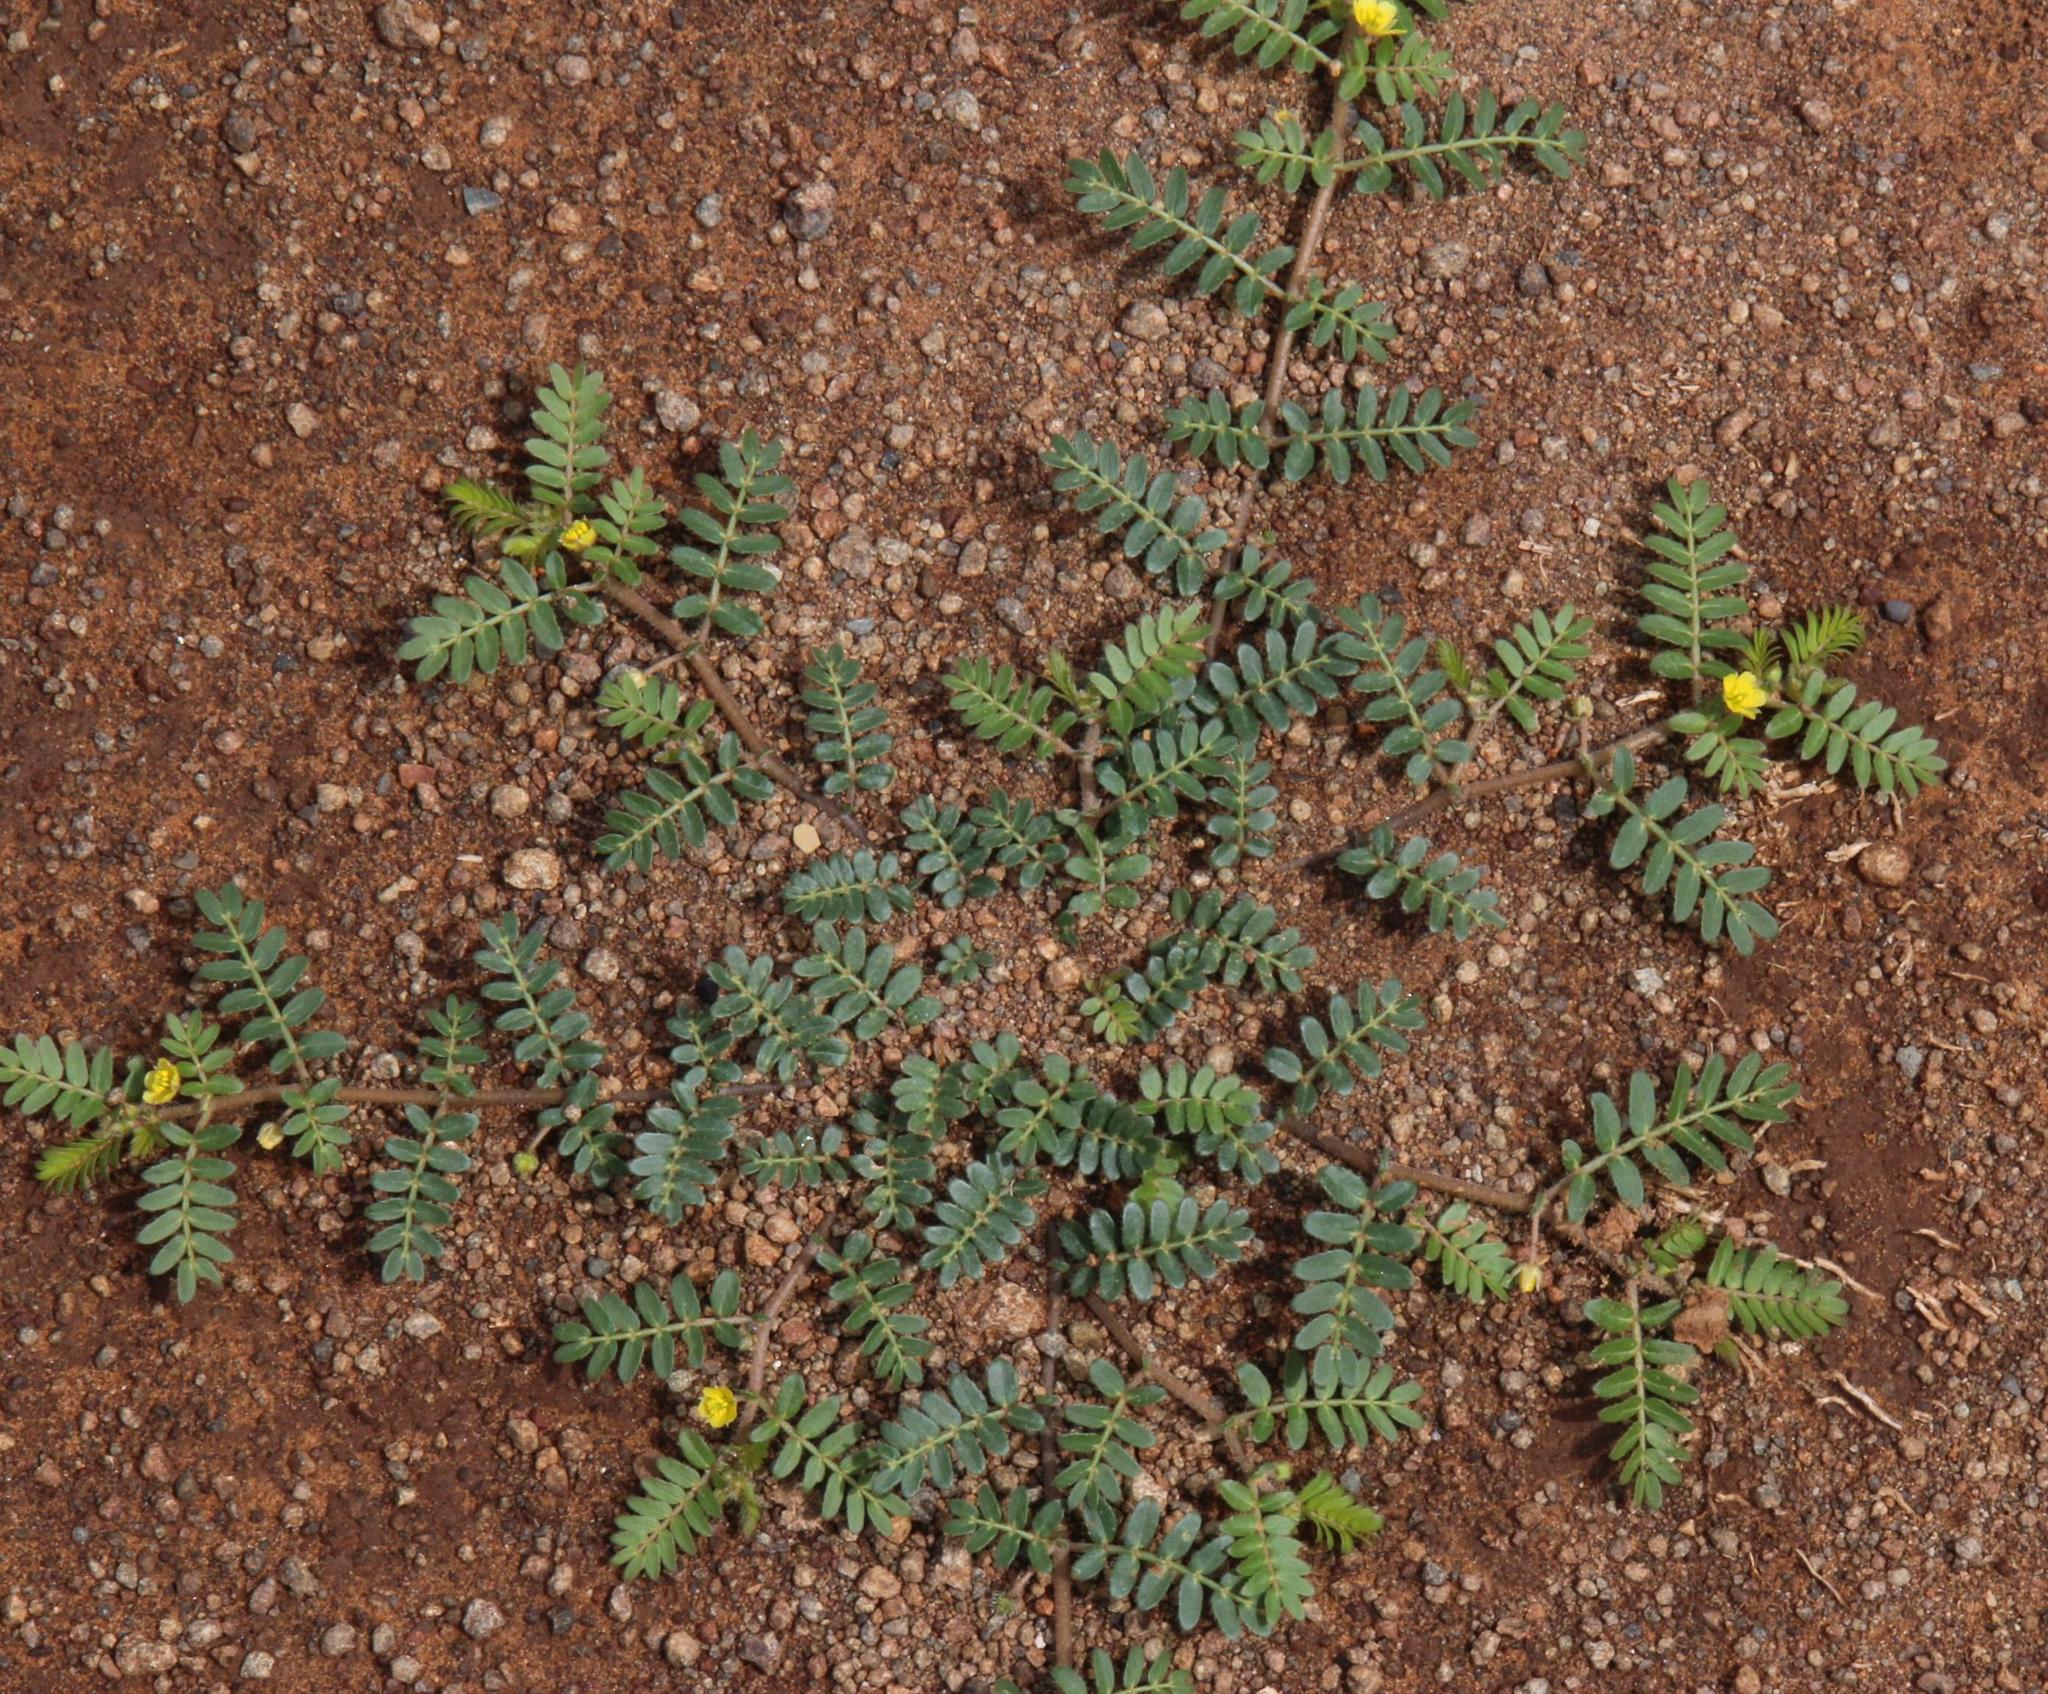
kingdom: Plantae
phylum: Tracheophyta
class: Magnoliopsida
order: Zygophyllales
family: Zygophyllaceae
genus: Tribulus
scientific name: Tribulus terrestris
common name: Puncturevine
